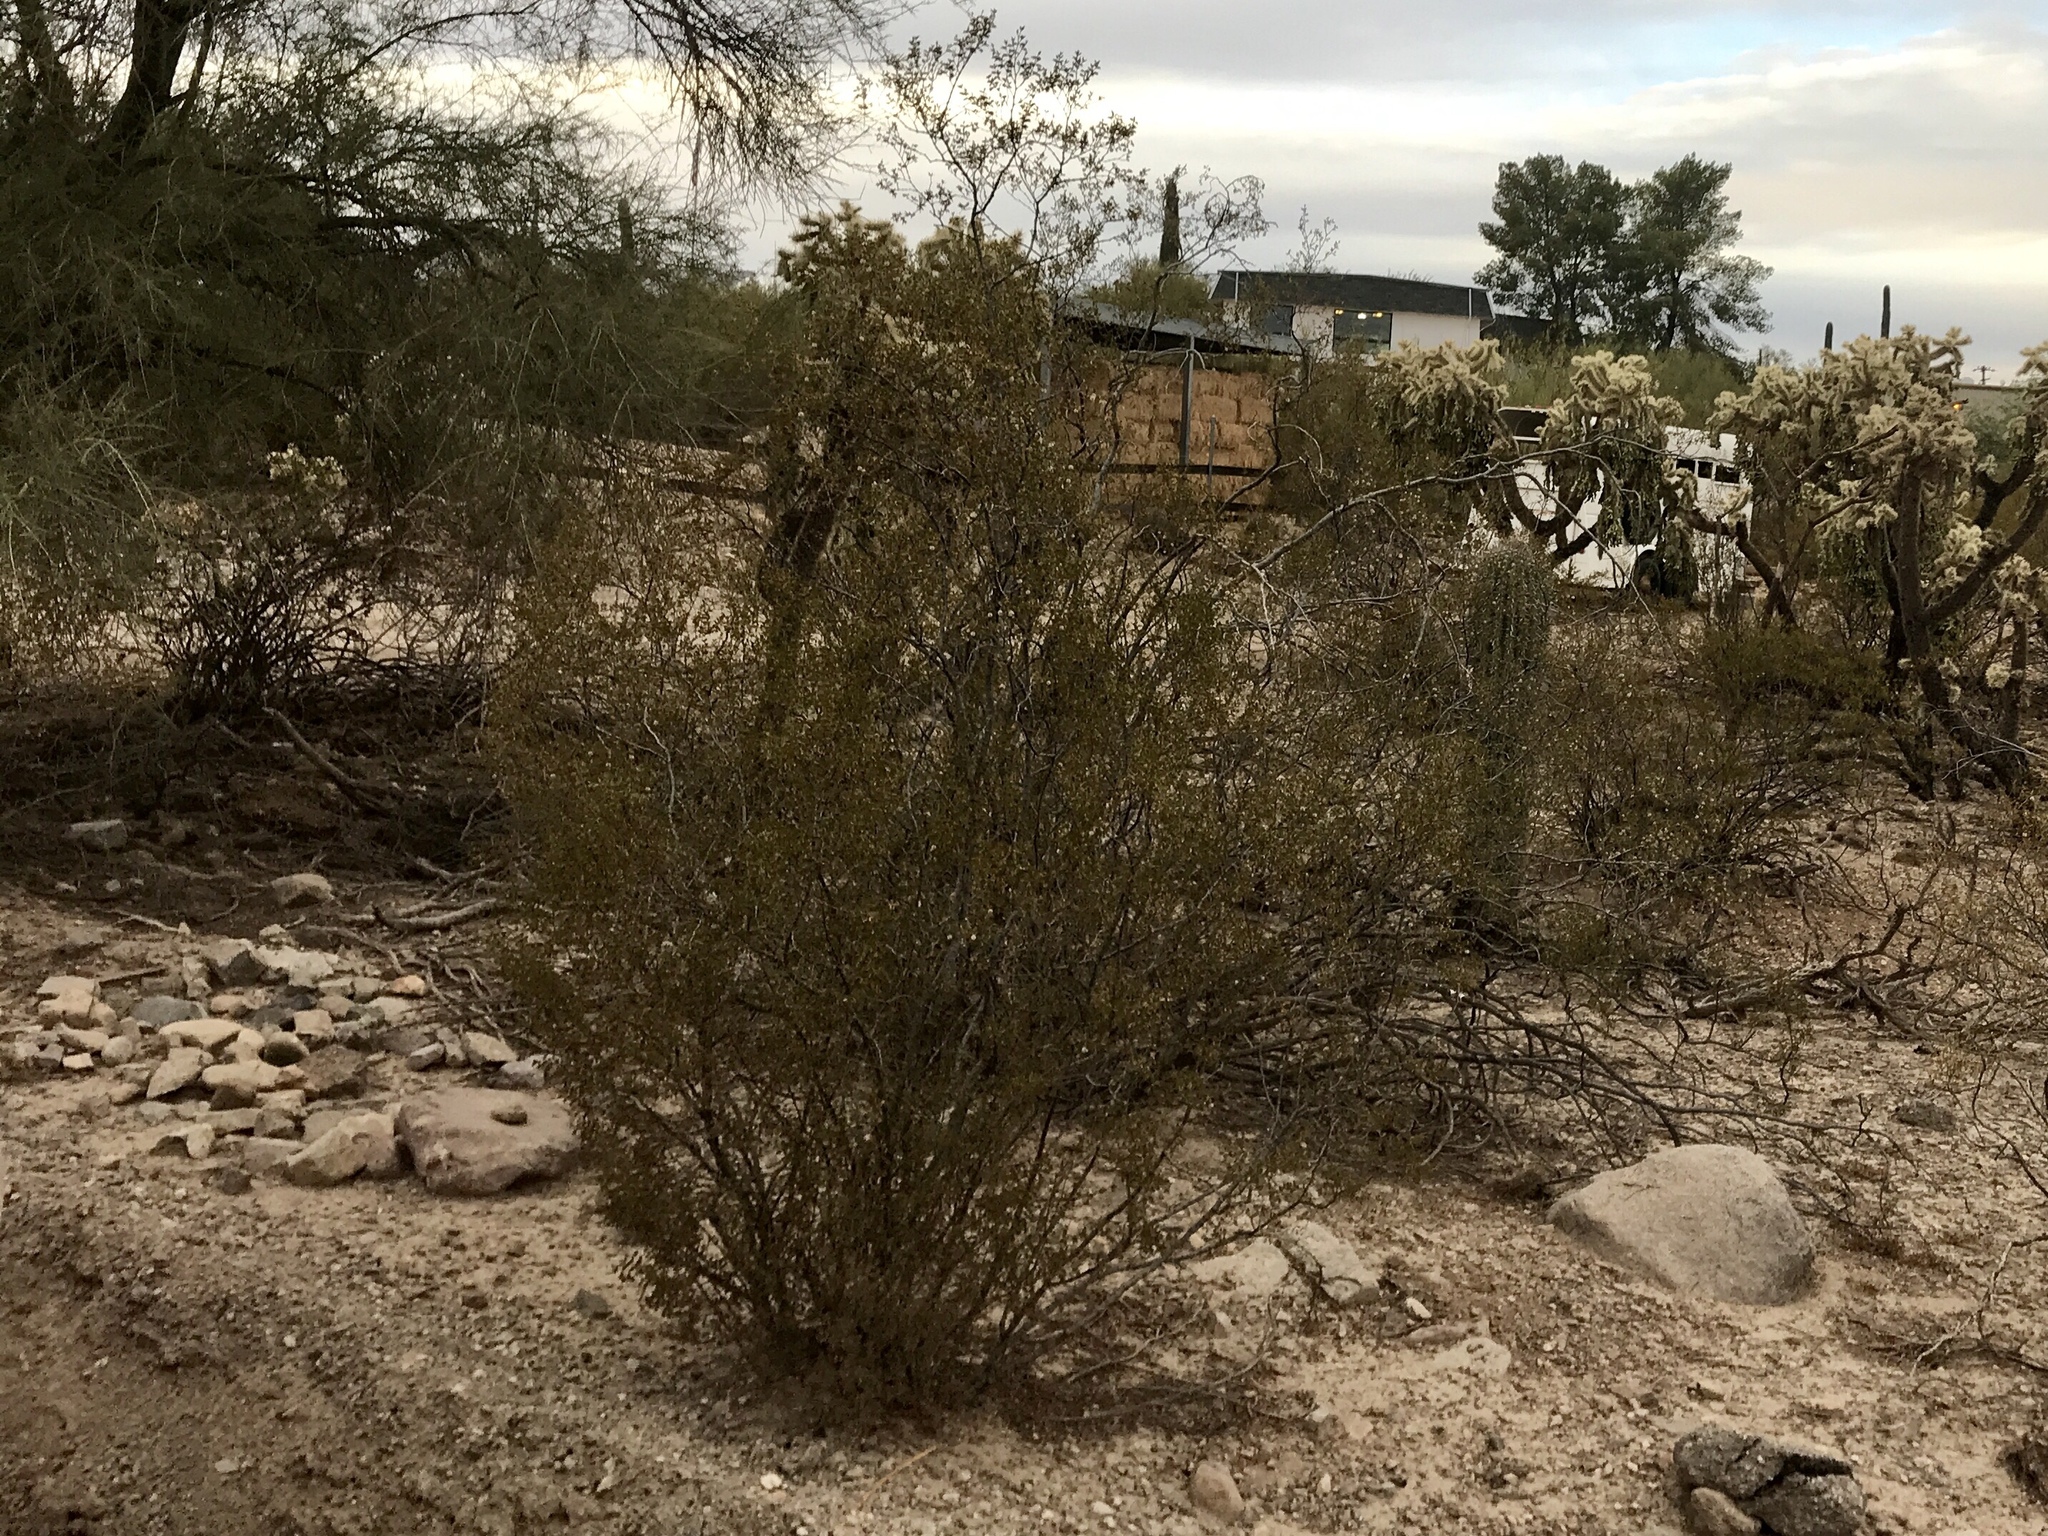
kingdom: Plantae
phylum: Tracheophyta
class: Magnoliopsida
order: Zygophyllales
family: Zygophyllaceae
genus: Larrea
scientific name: Larrea tridentata
